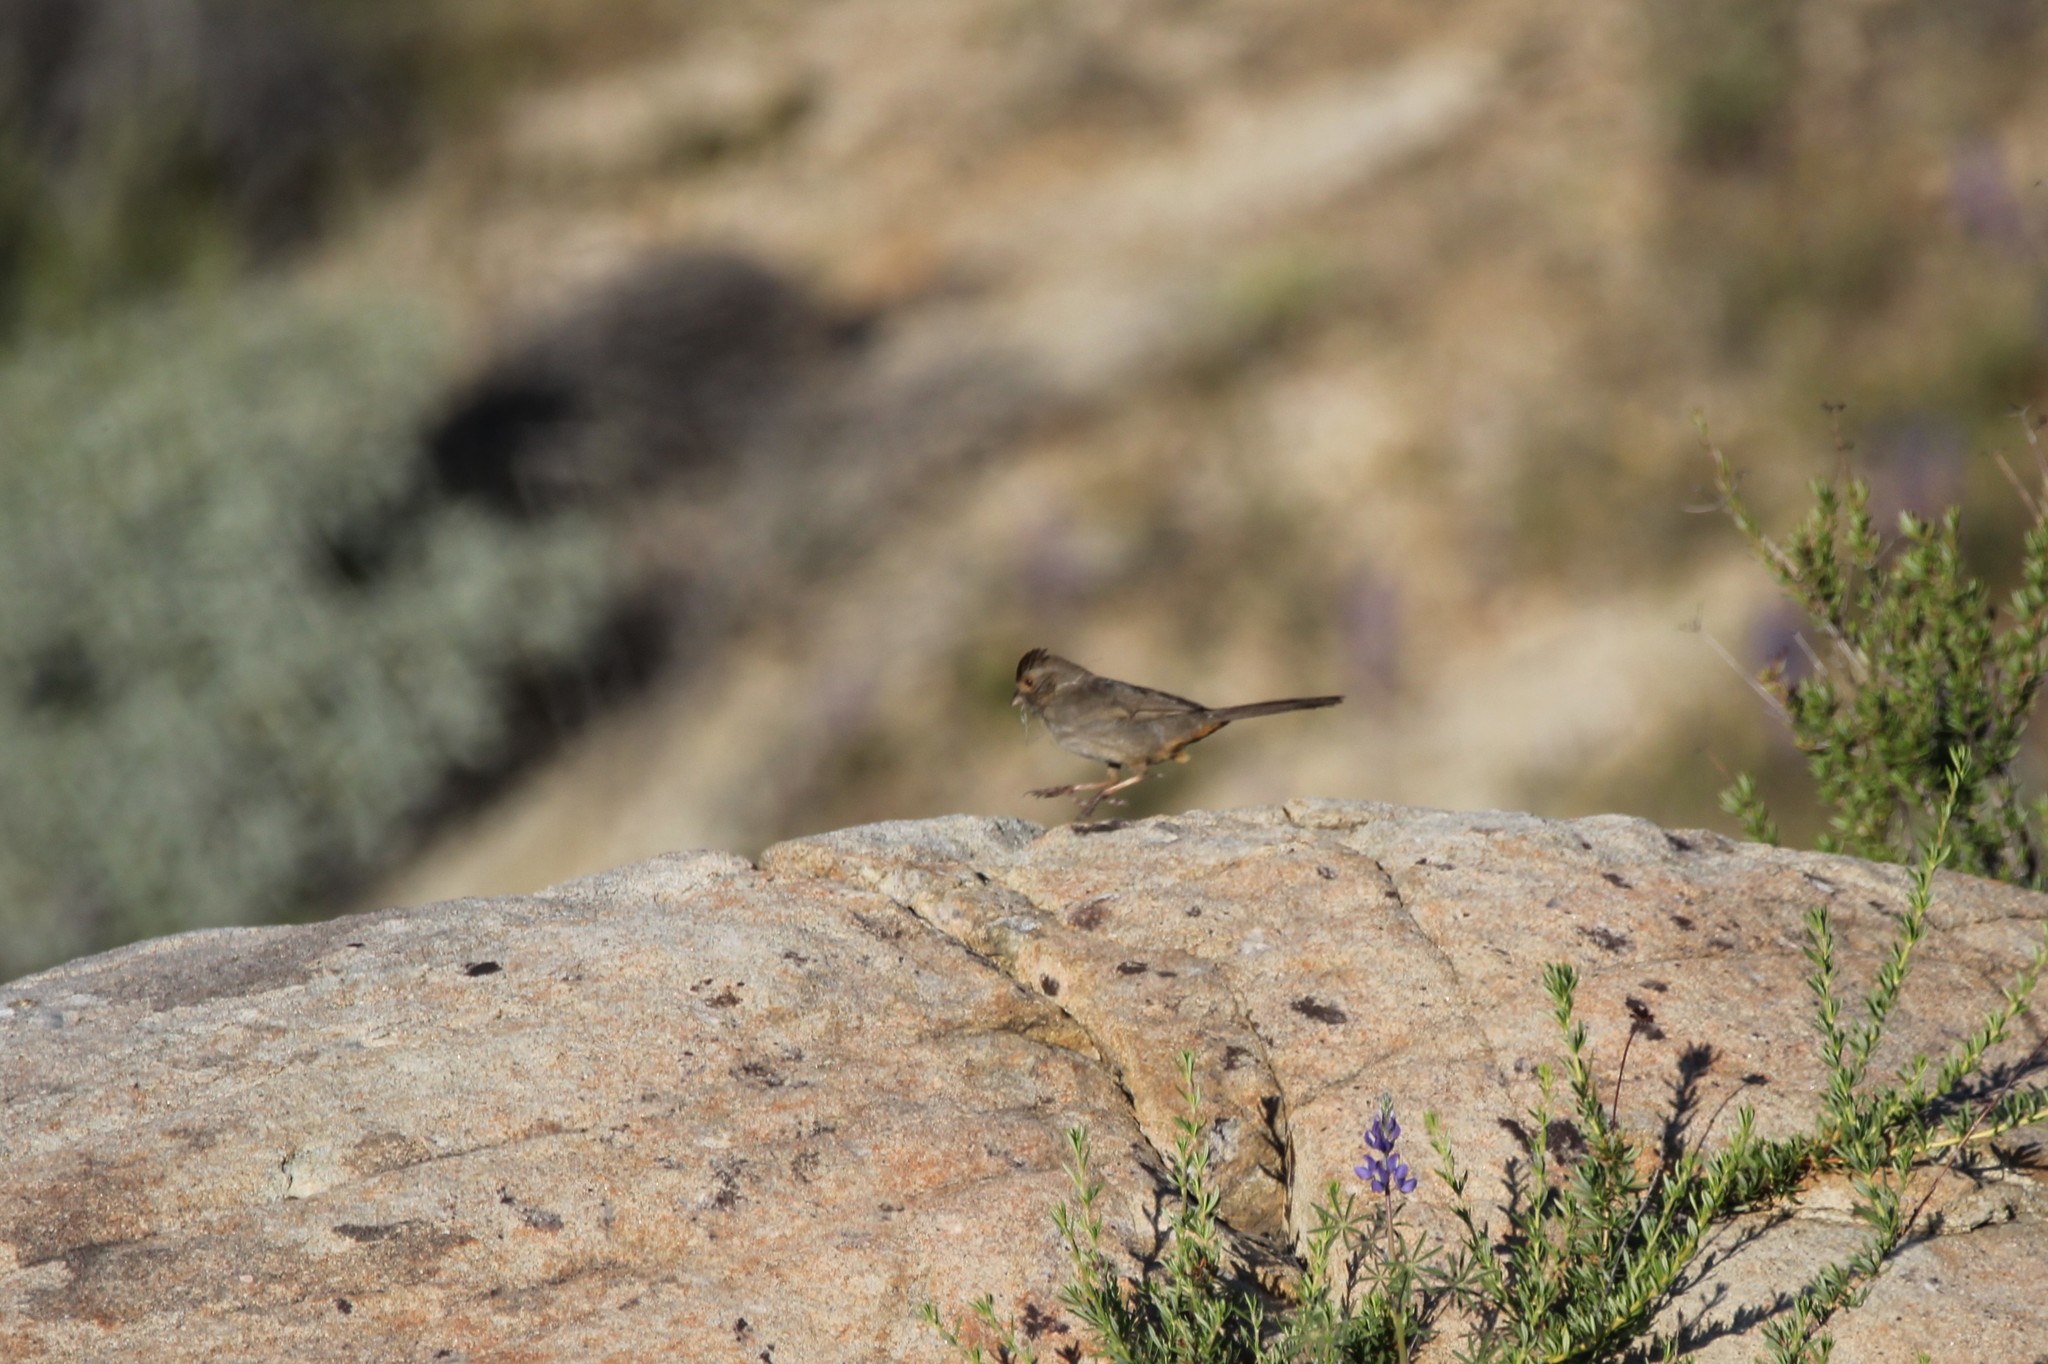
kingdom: Animalia
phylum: Chordata
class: Aves
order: Passeriformes
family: Passerellidae
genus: Melozone
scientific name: Melozone crissalis
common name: California towhee
